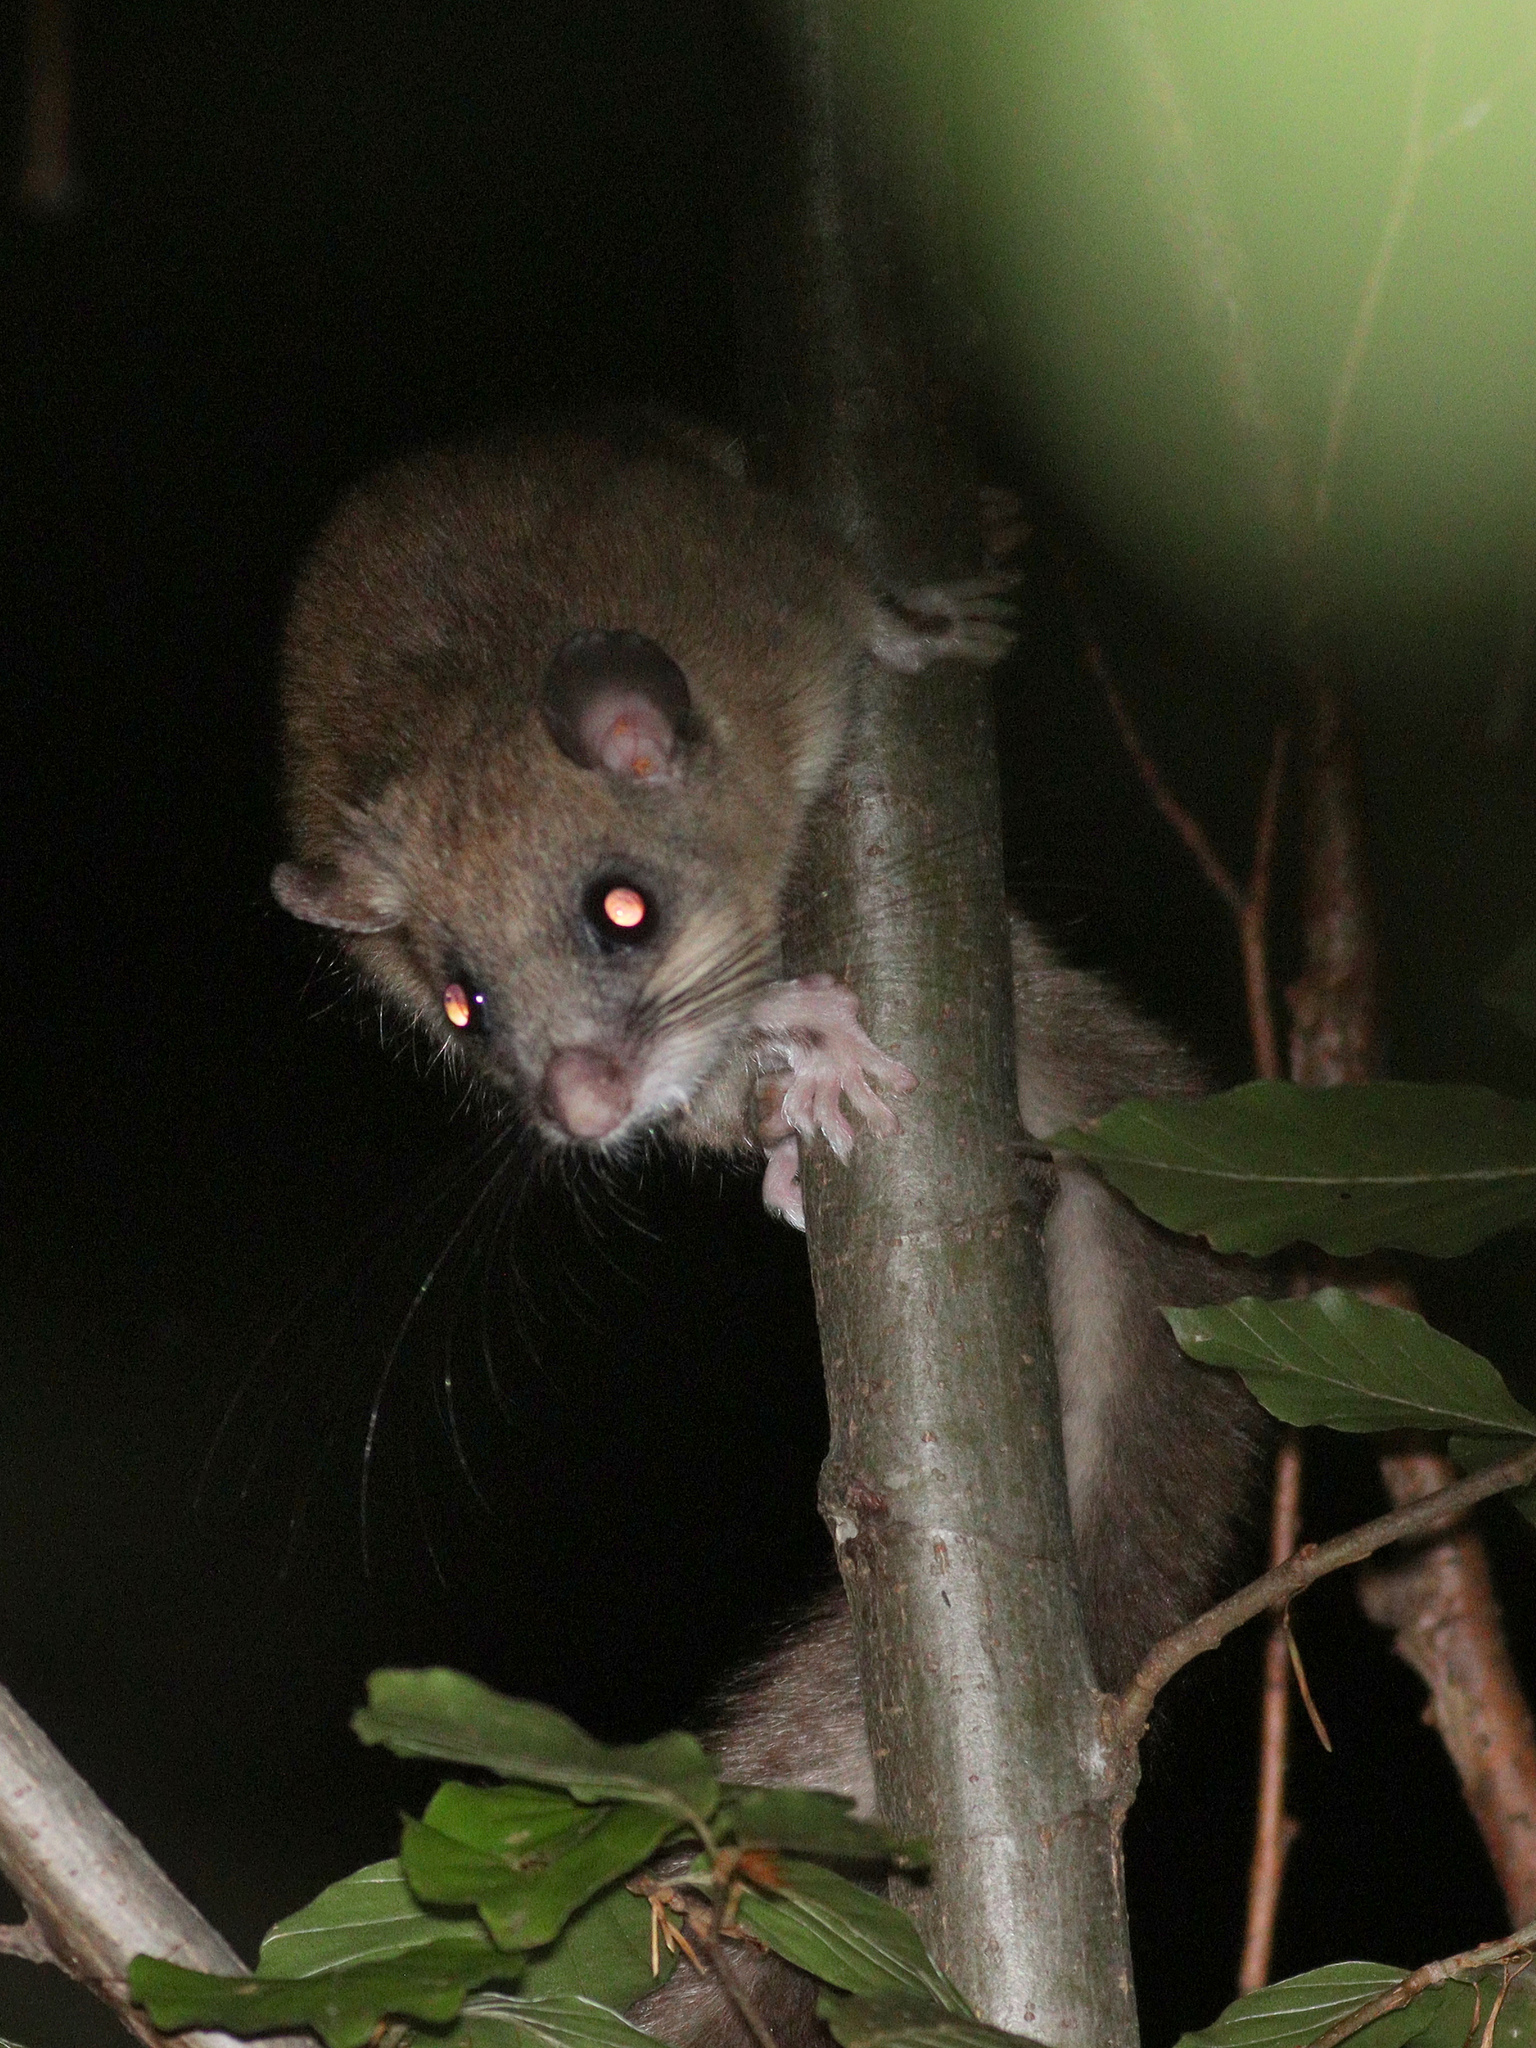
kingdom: Animalia
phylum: Chordata
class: Mammalia
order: Rodentia
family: Gliridae
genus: Glis
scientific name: Glis glis
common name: Fat dormouse
